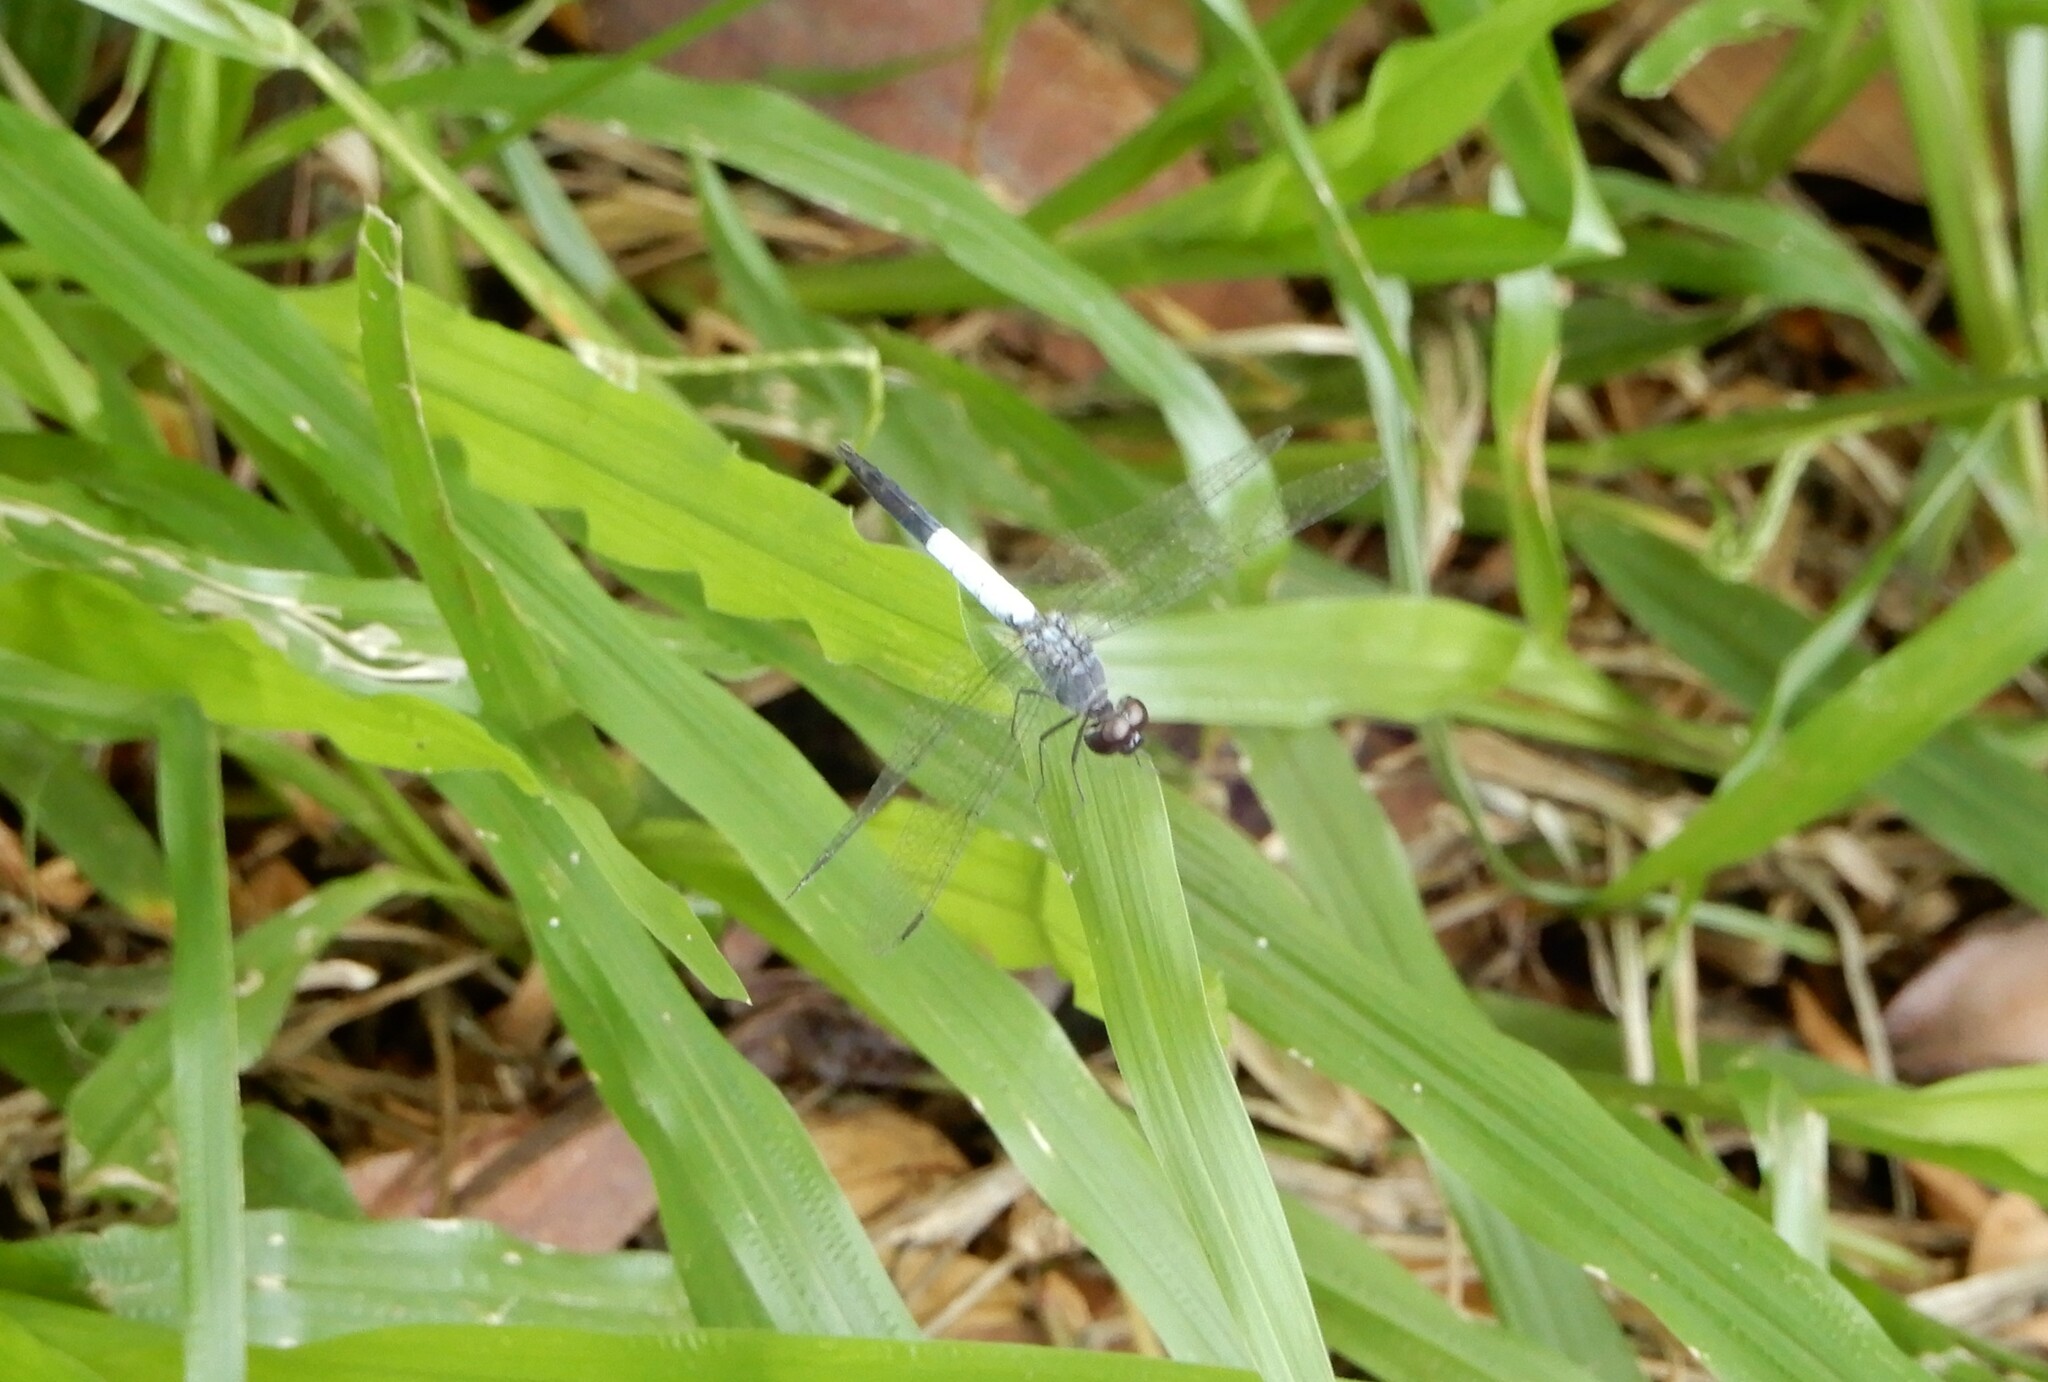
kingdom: Animalia
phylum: Arthropoda
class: Insecta
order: Odonata
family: Libellulidae
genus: Brachydiplax
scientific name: Brachydiplax farinosa
